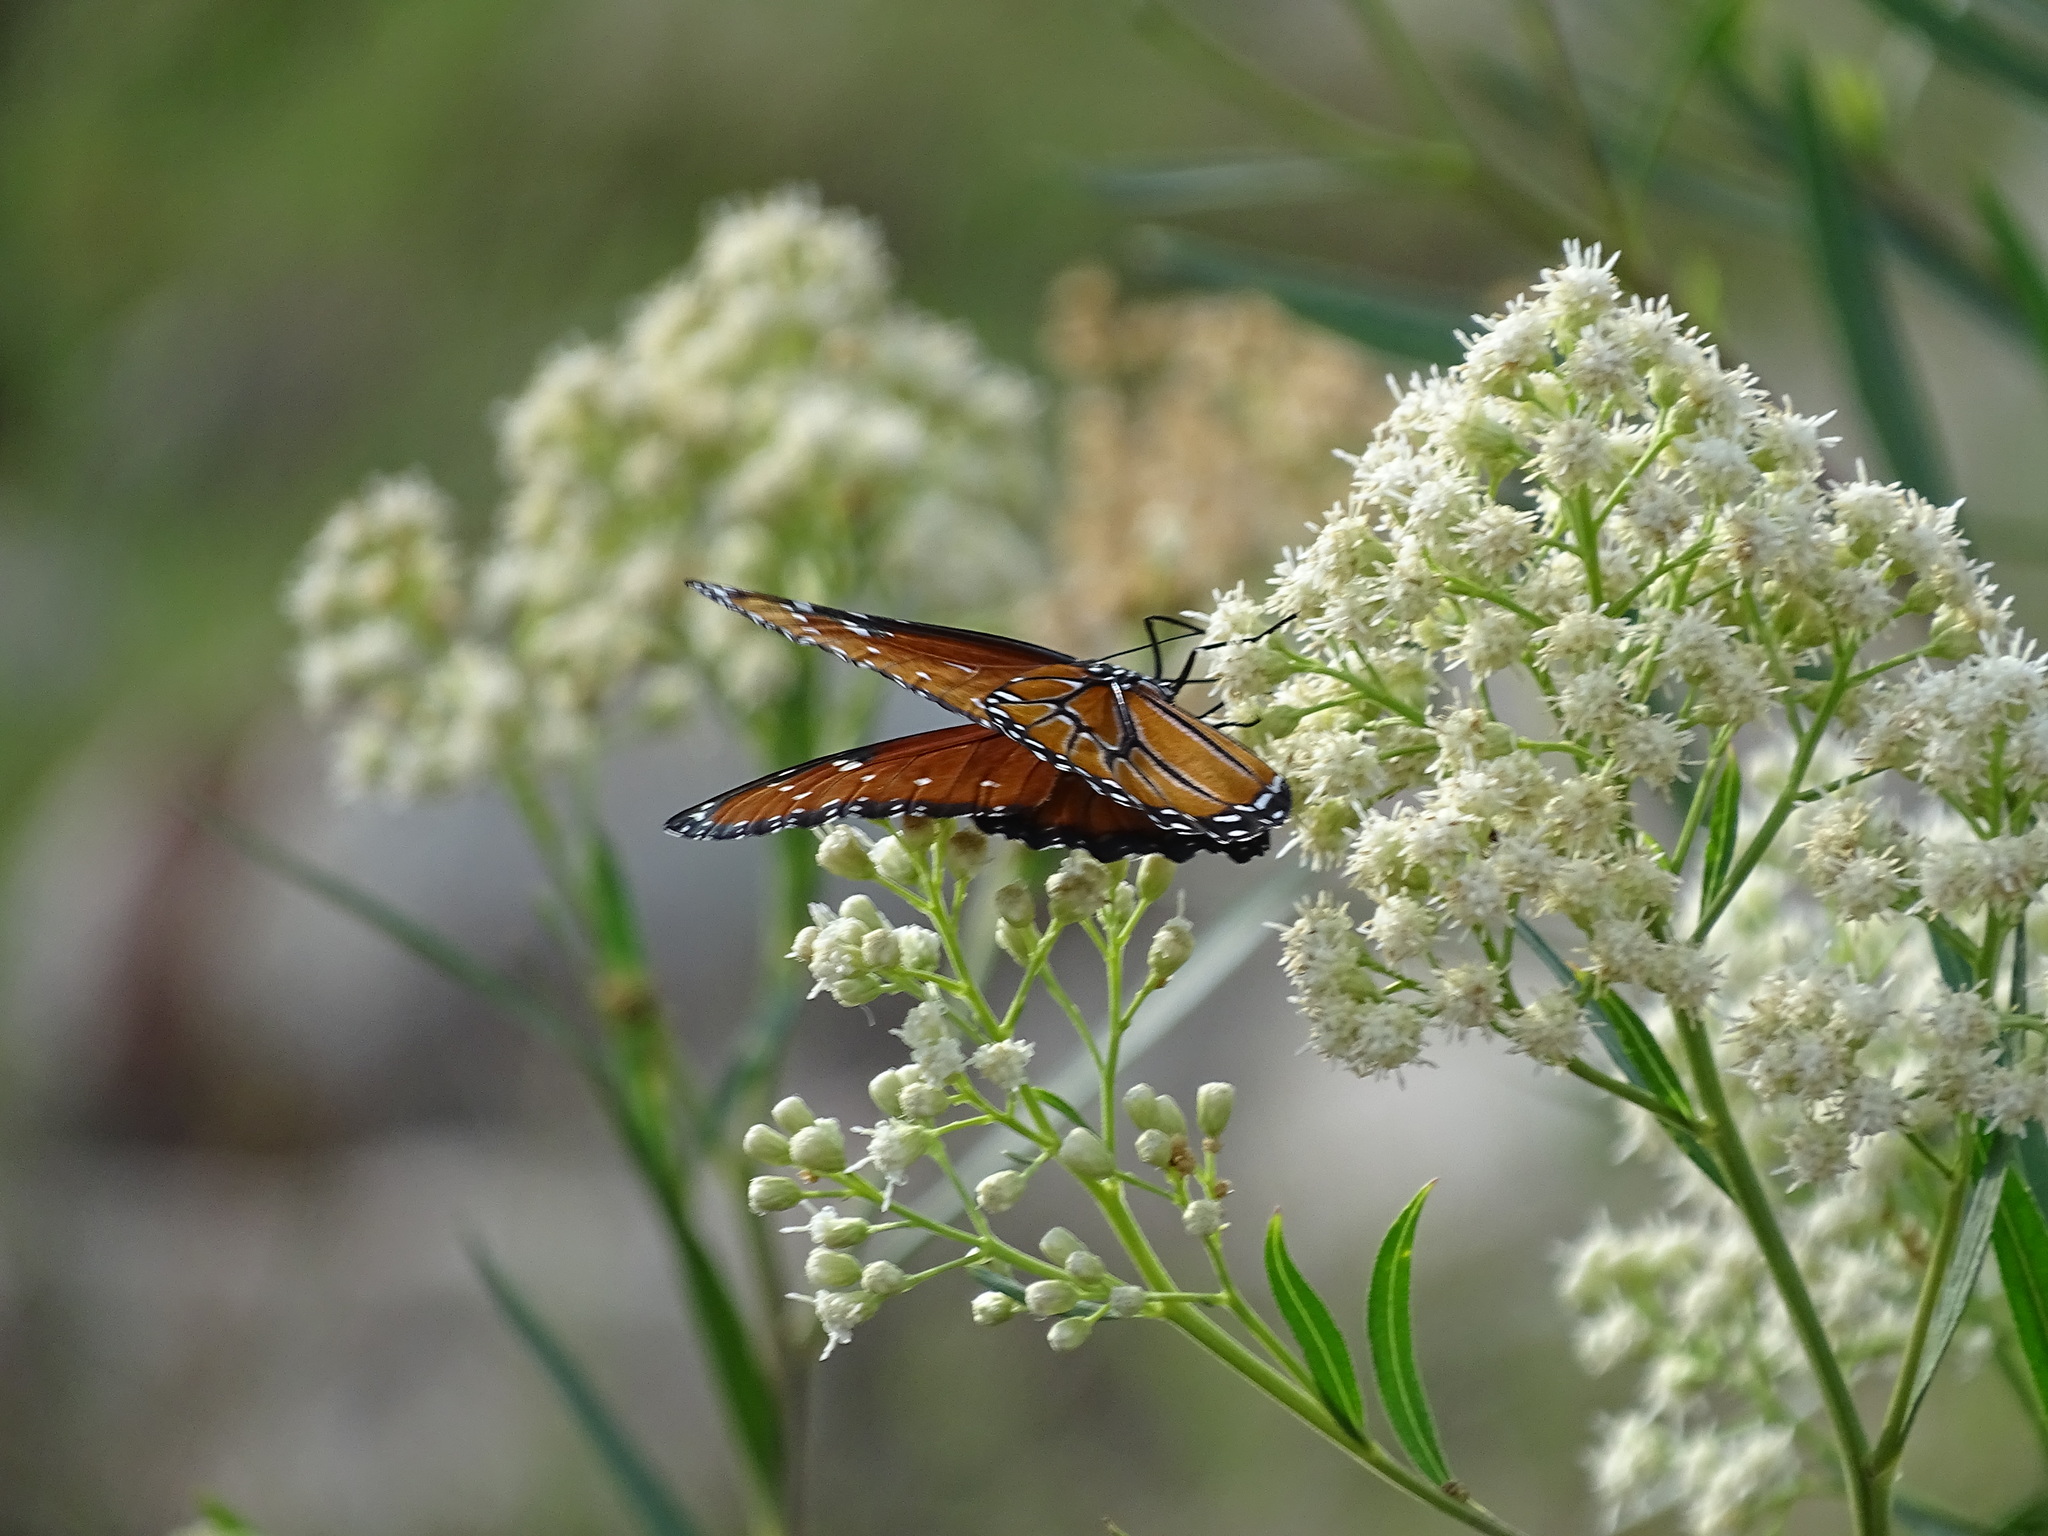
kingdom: Animalia
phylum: Arthropoda
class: Insecta
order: Lepidoptera
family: Nymphalidae
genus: Danaus
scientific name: Danaus gilippus
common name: Queen
